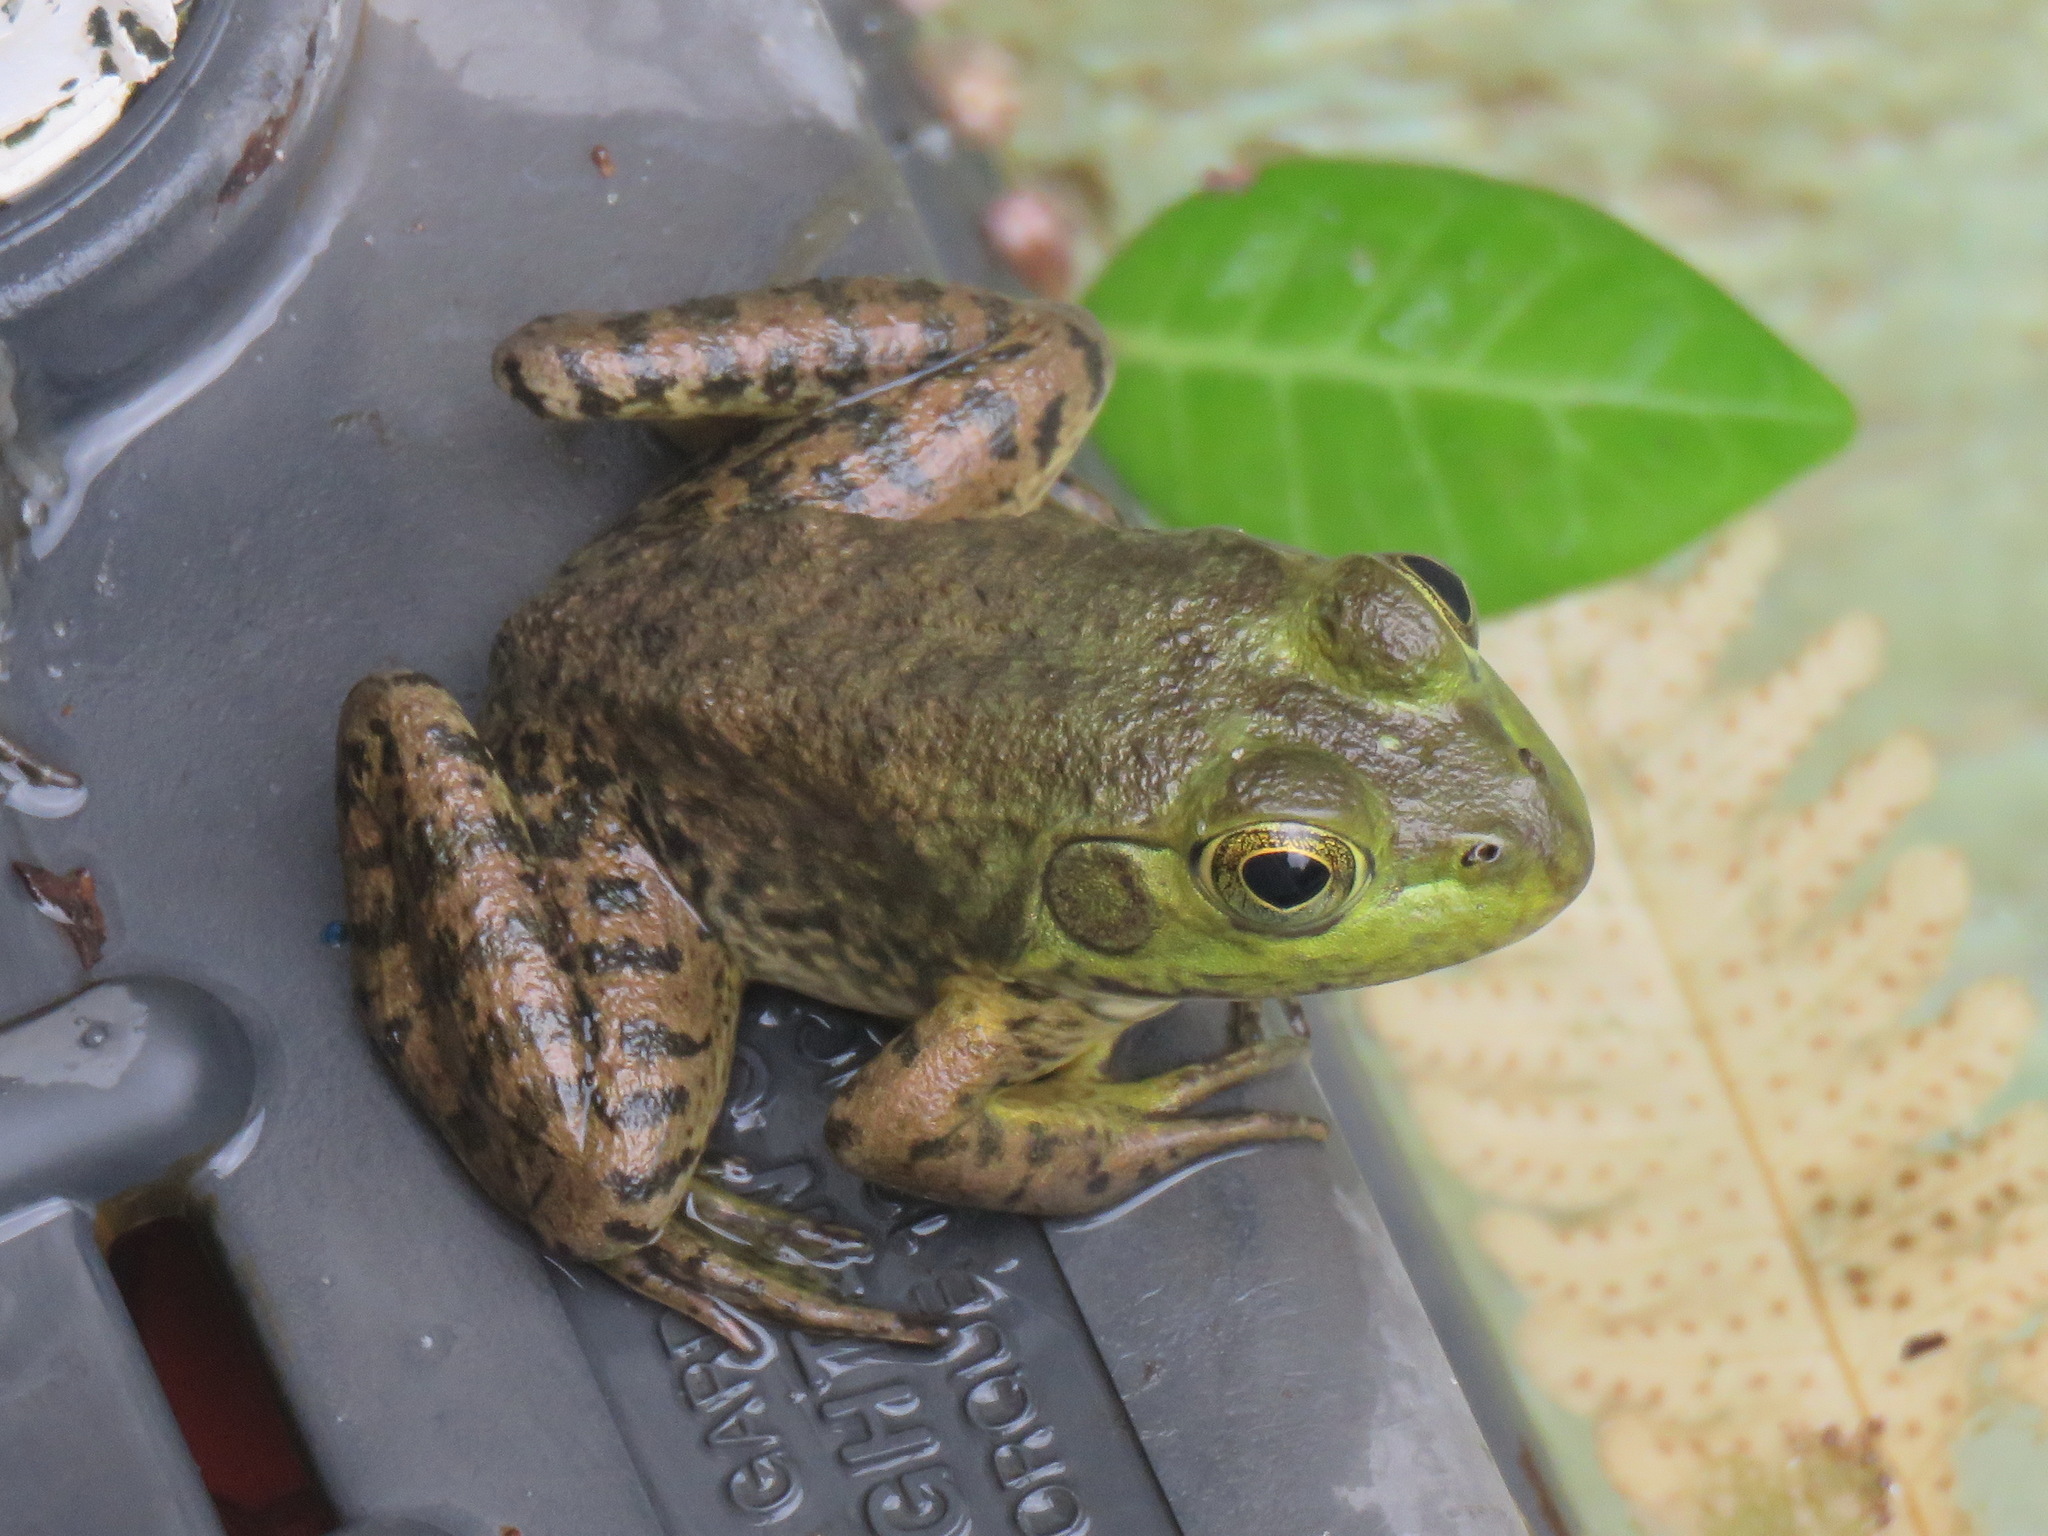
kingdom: Animalia
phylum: Chordata
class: Amphibia
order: Anura
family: Ranidae
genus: Lithobates
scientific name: Lithobates catesbeianus
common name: American bullfrog
